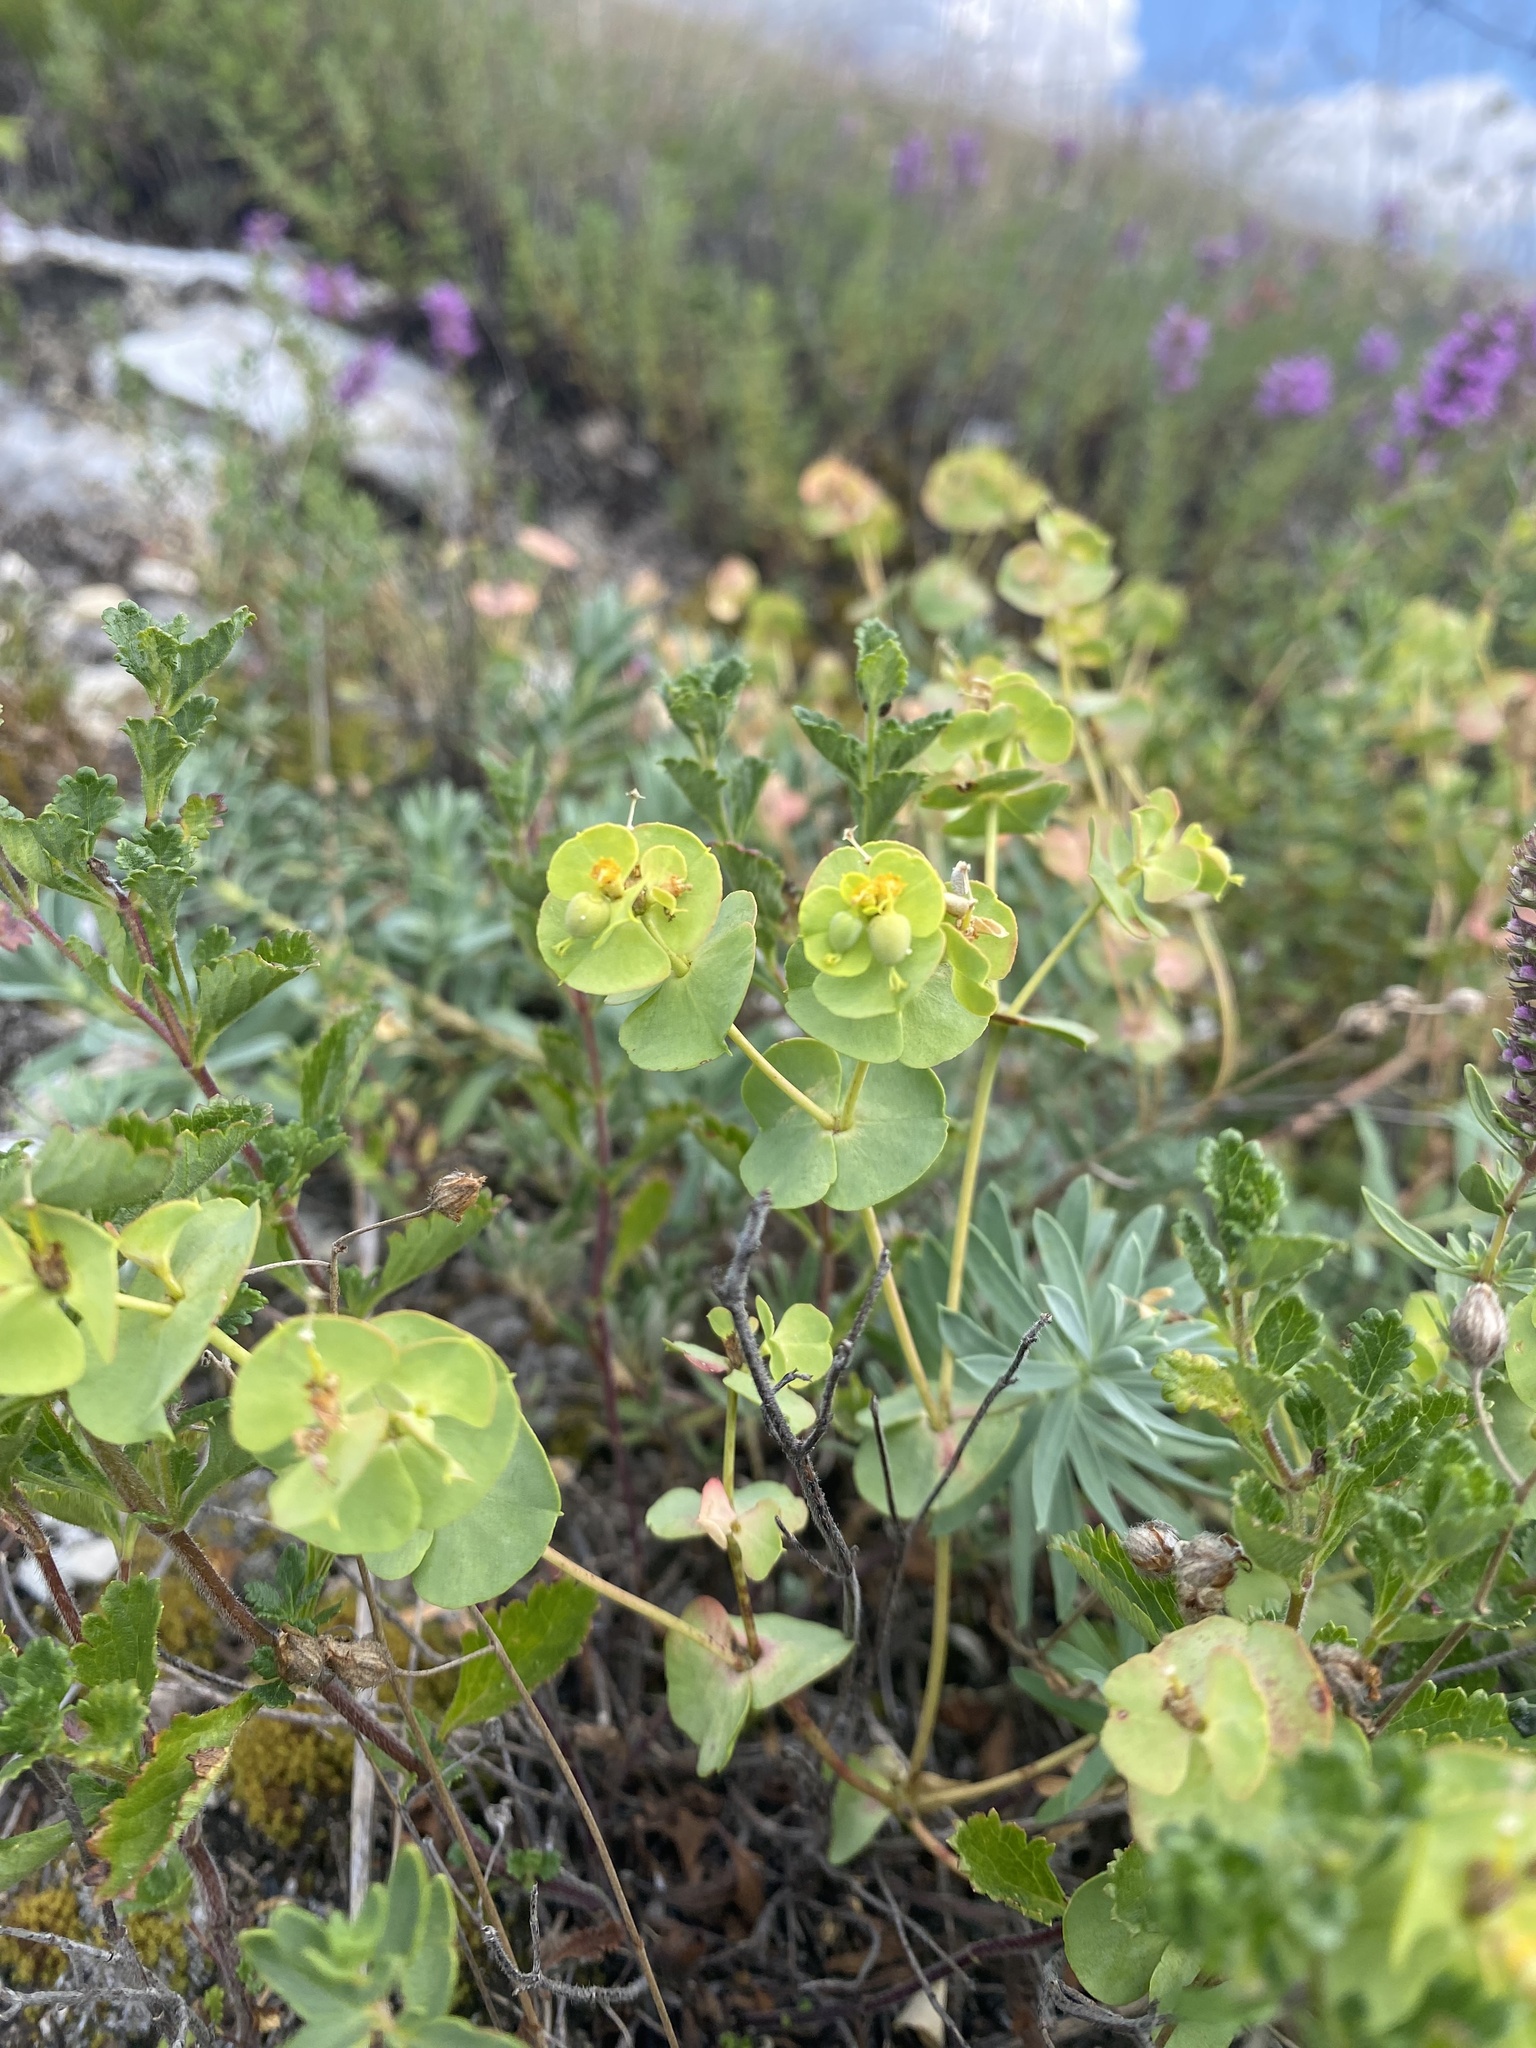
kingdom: Plantae
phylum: Tracheophyta
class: Magnoliopsida
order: Malpighiales
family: Euphorbiaceae
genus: Euphorbia
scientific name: Euphorbia petrophila
